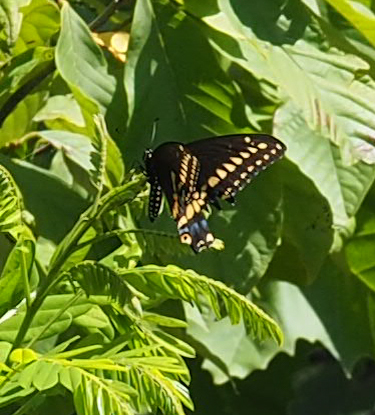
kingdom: Animalia
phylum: Arthropoda
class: Insecta
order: Lepidoptera
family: Papilionidae
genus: Papilio
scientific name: Papilio polyxenes
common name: Black swallowtail
